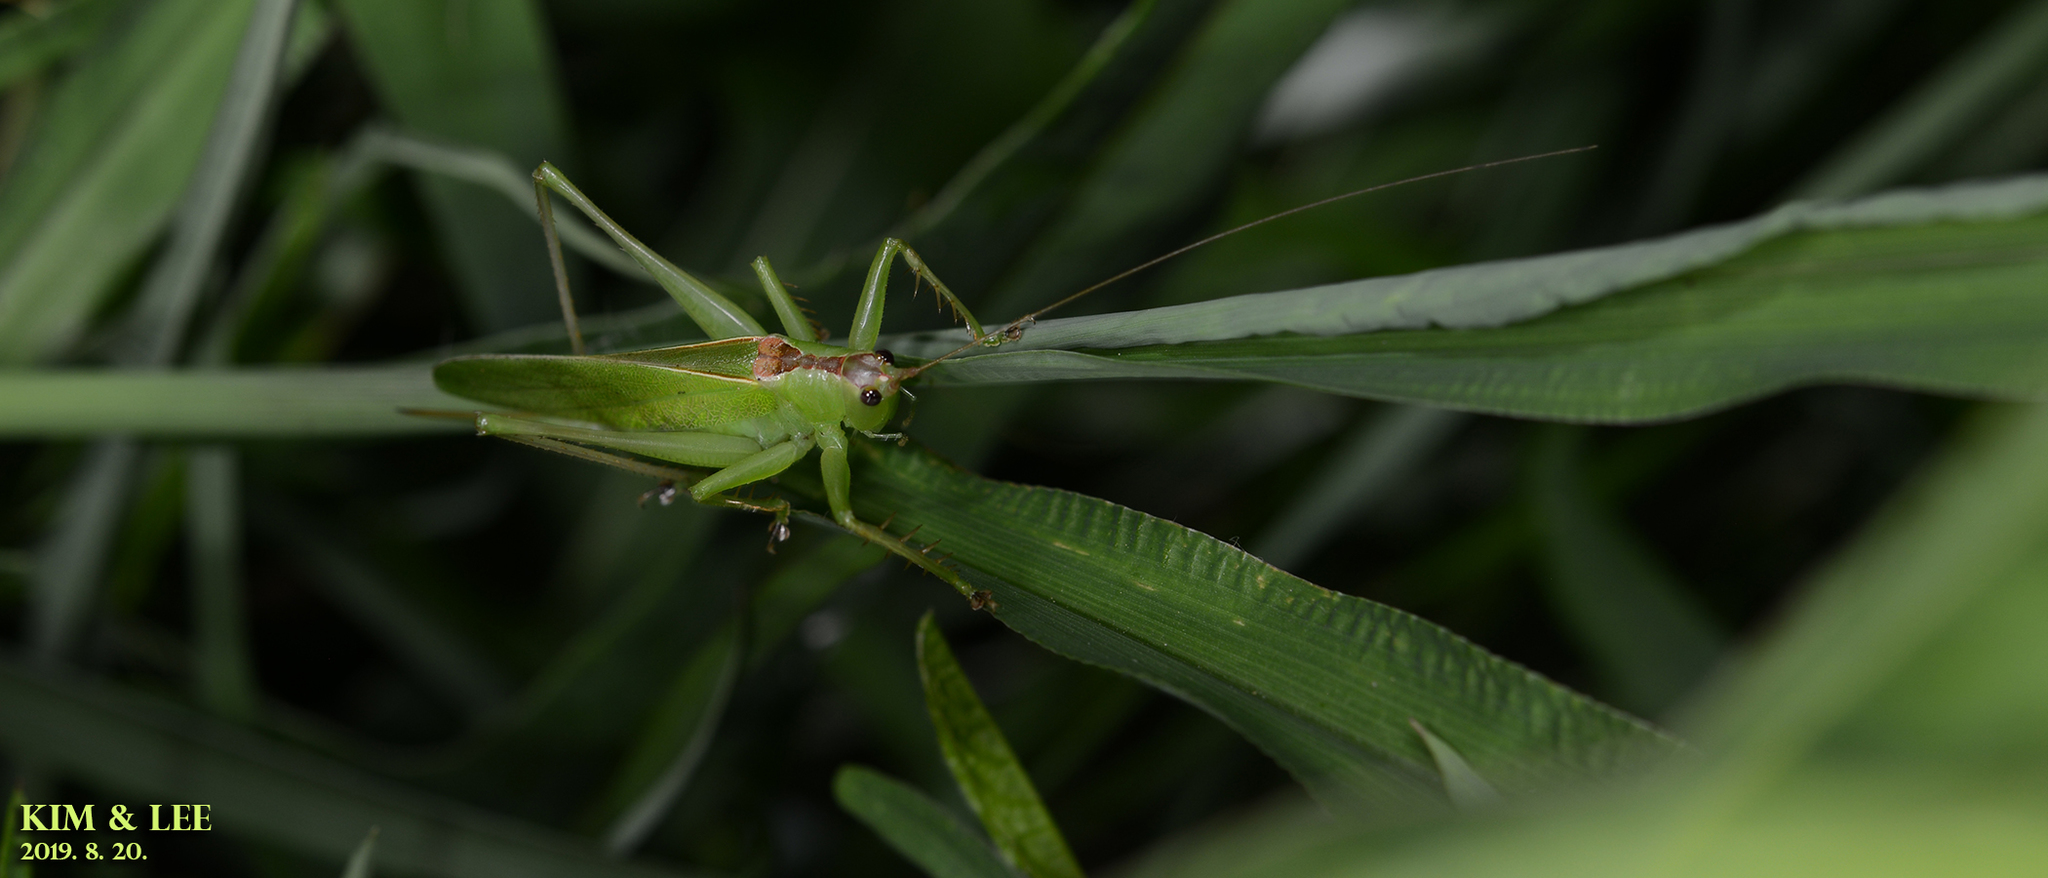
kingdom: Animalia
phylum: Arthropoda
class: Insecta
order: Orthoptera
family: Tettigoniidae
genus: Hexacentrus
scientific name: Hexacentrus japonicus
